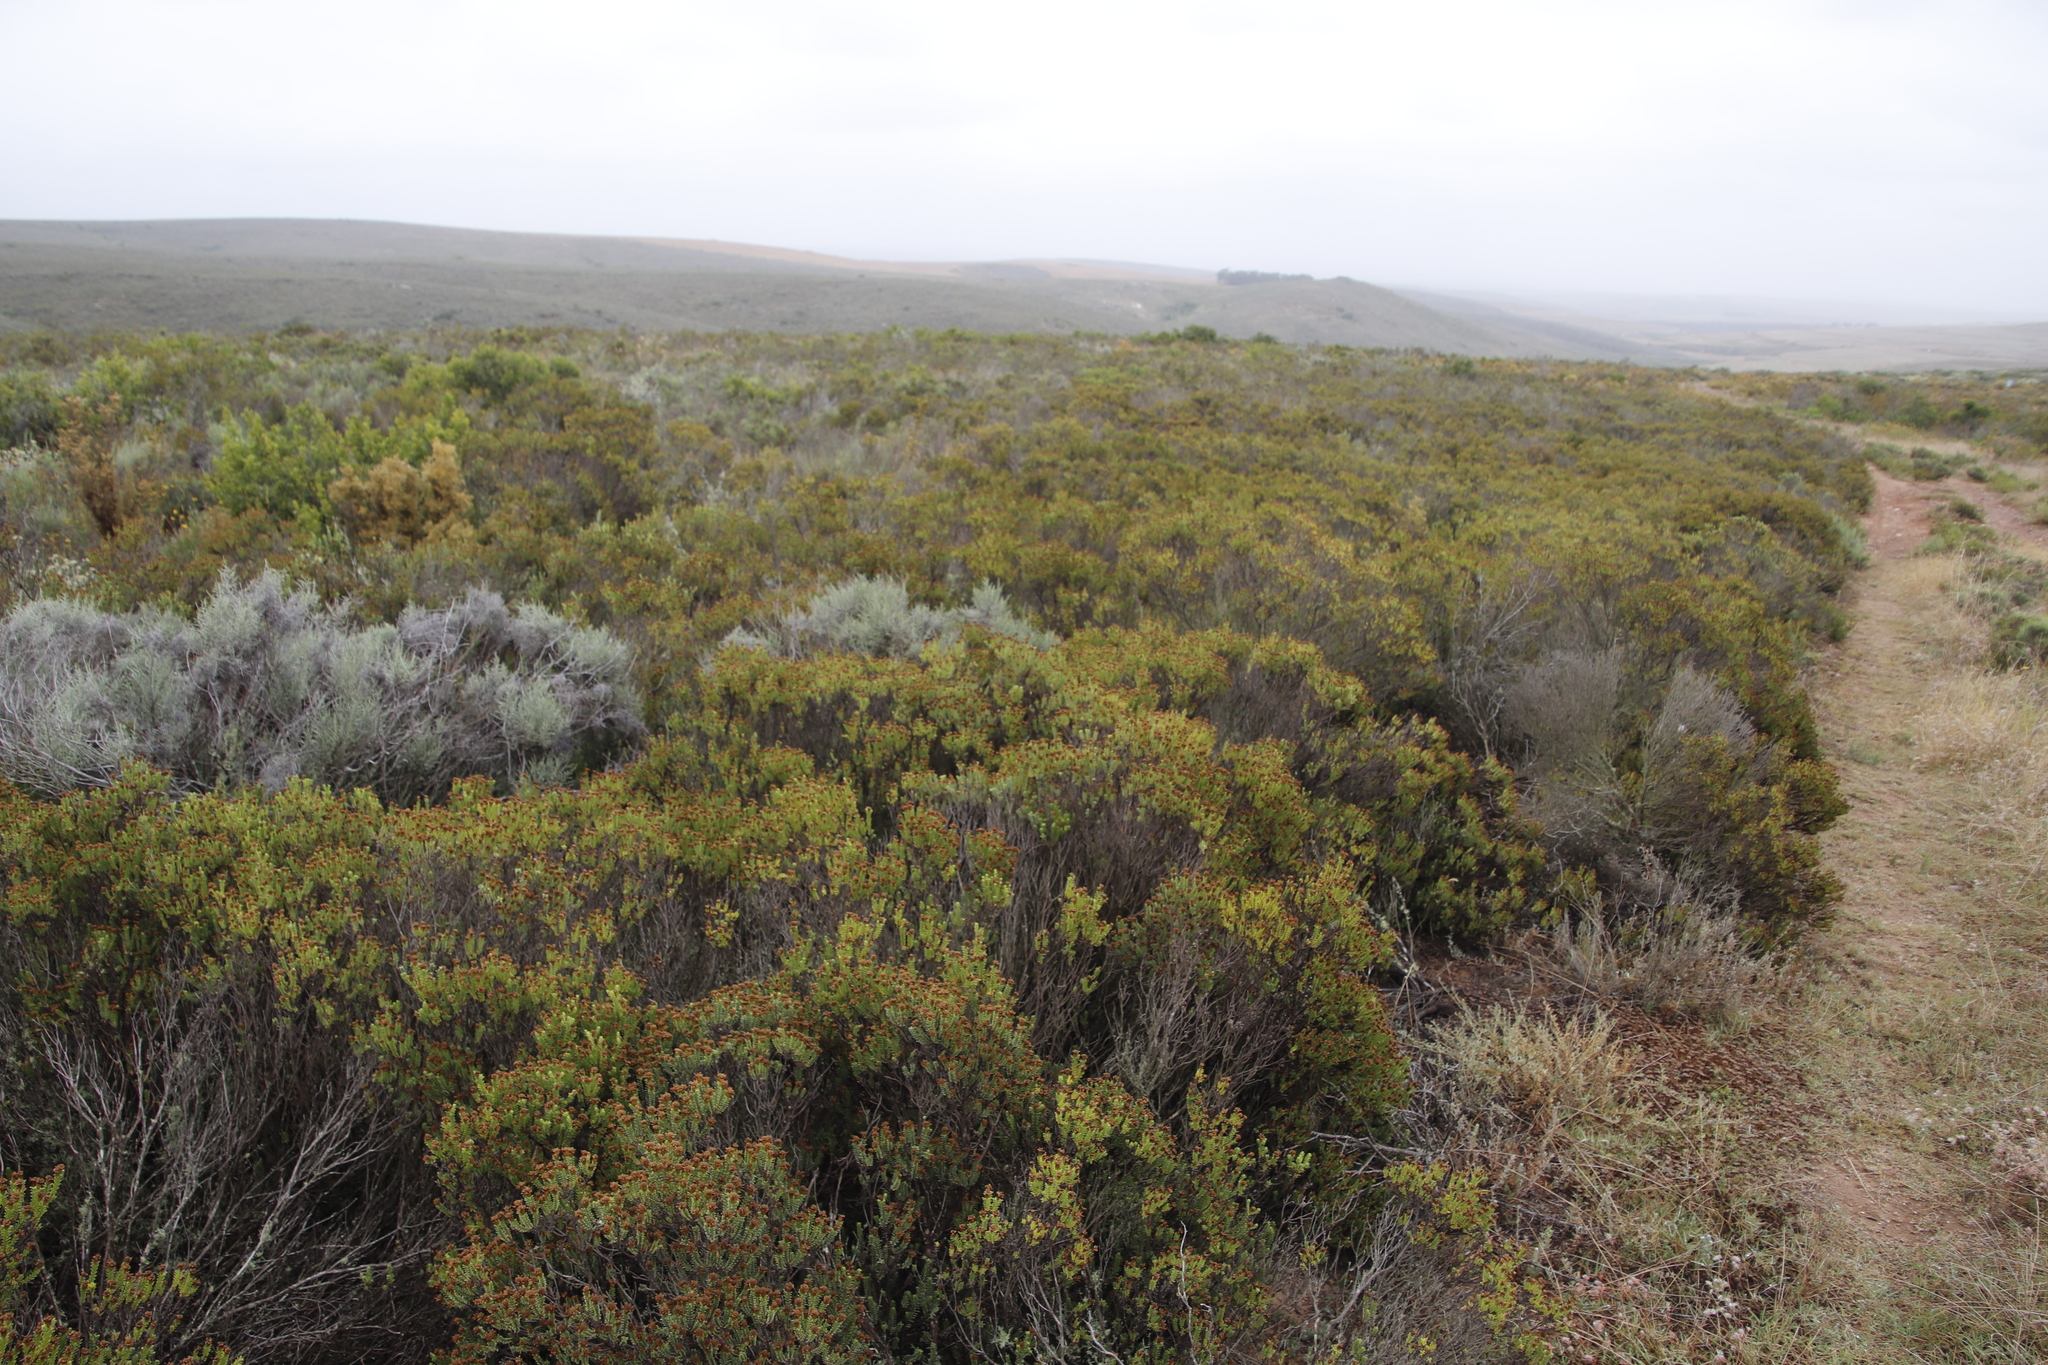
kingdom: Plantae
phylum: Tracheophyta
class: Magnoliopsida
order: Asterales
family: Asteraceae
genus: Oedera
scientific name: Oedera uniflora
